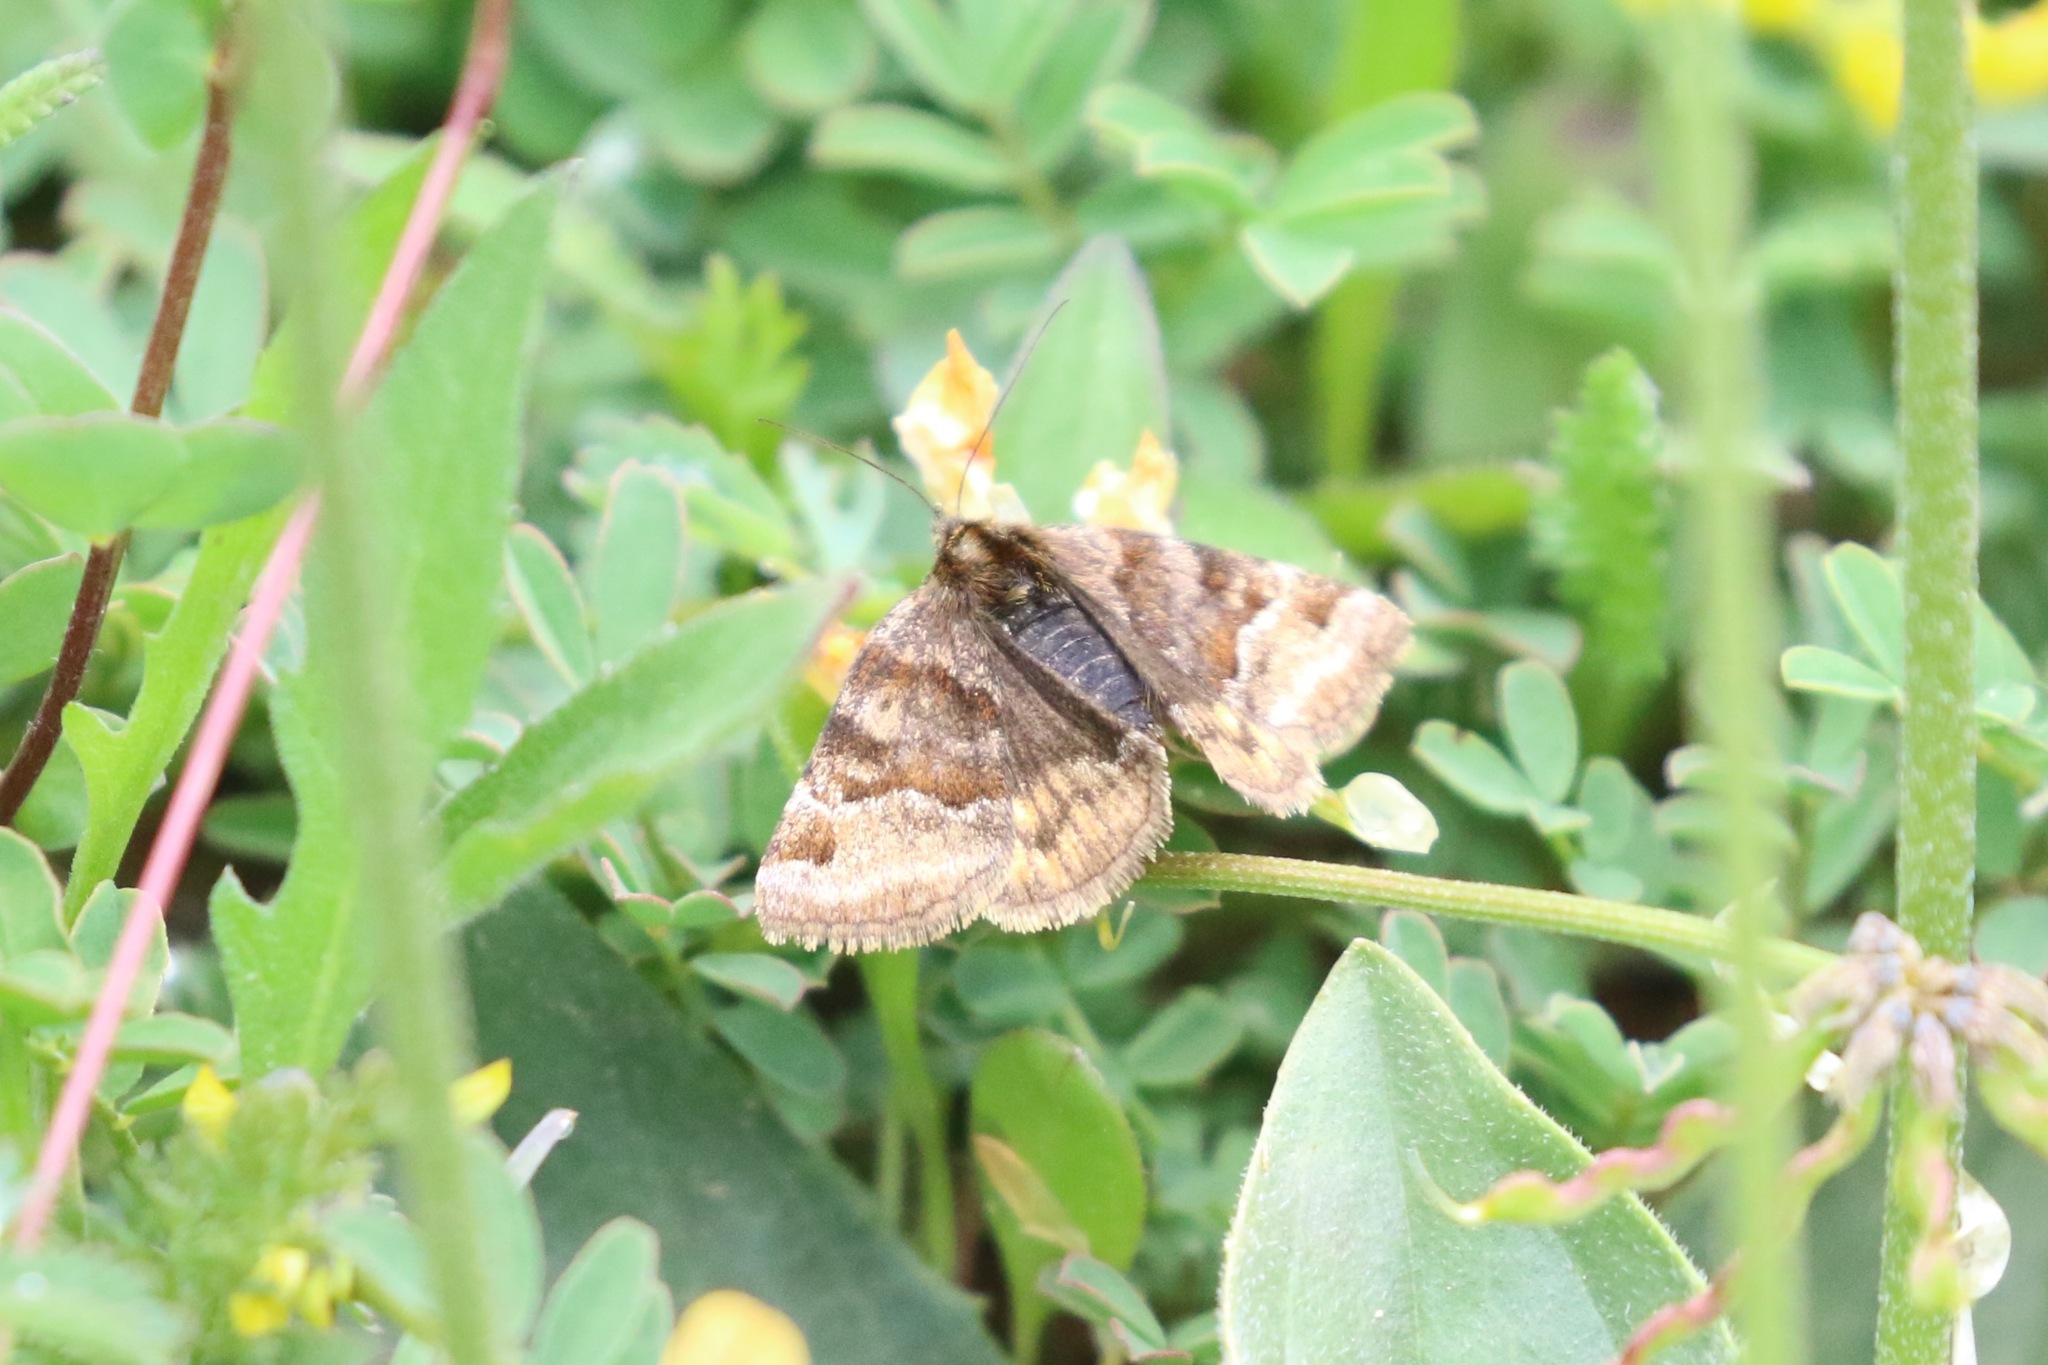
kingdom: Animalia
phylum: Arthropoda
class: Insecta
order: Lepidoptera
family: Erebidae
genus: Euclidia
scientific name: Euclidia glyphica
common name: Burnet companion
